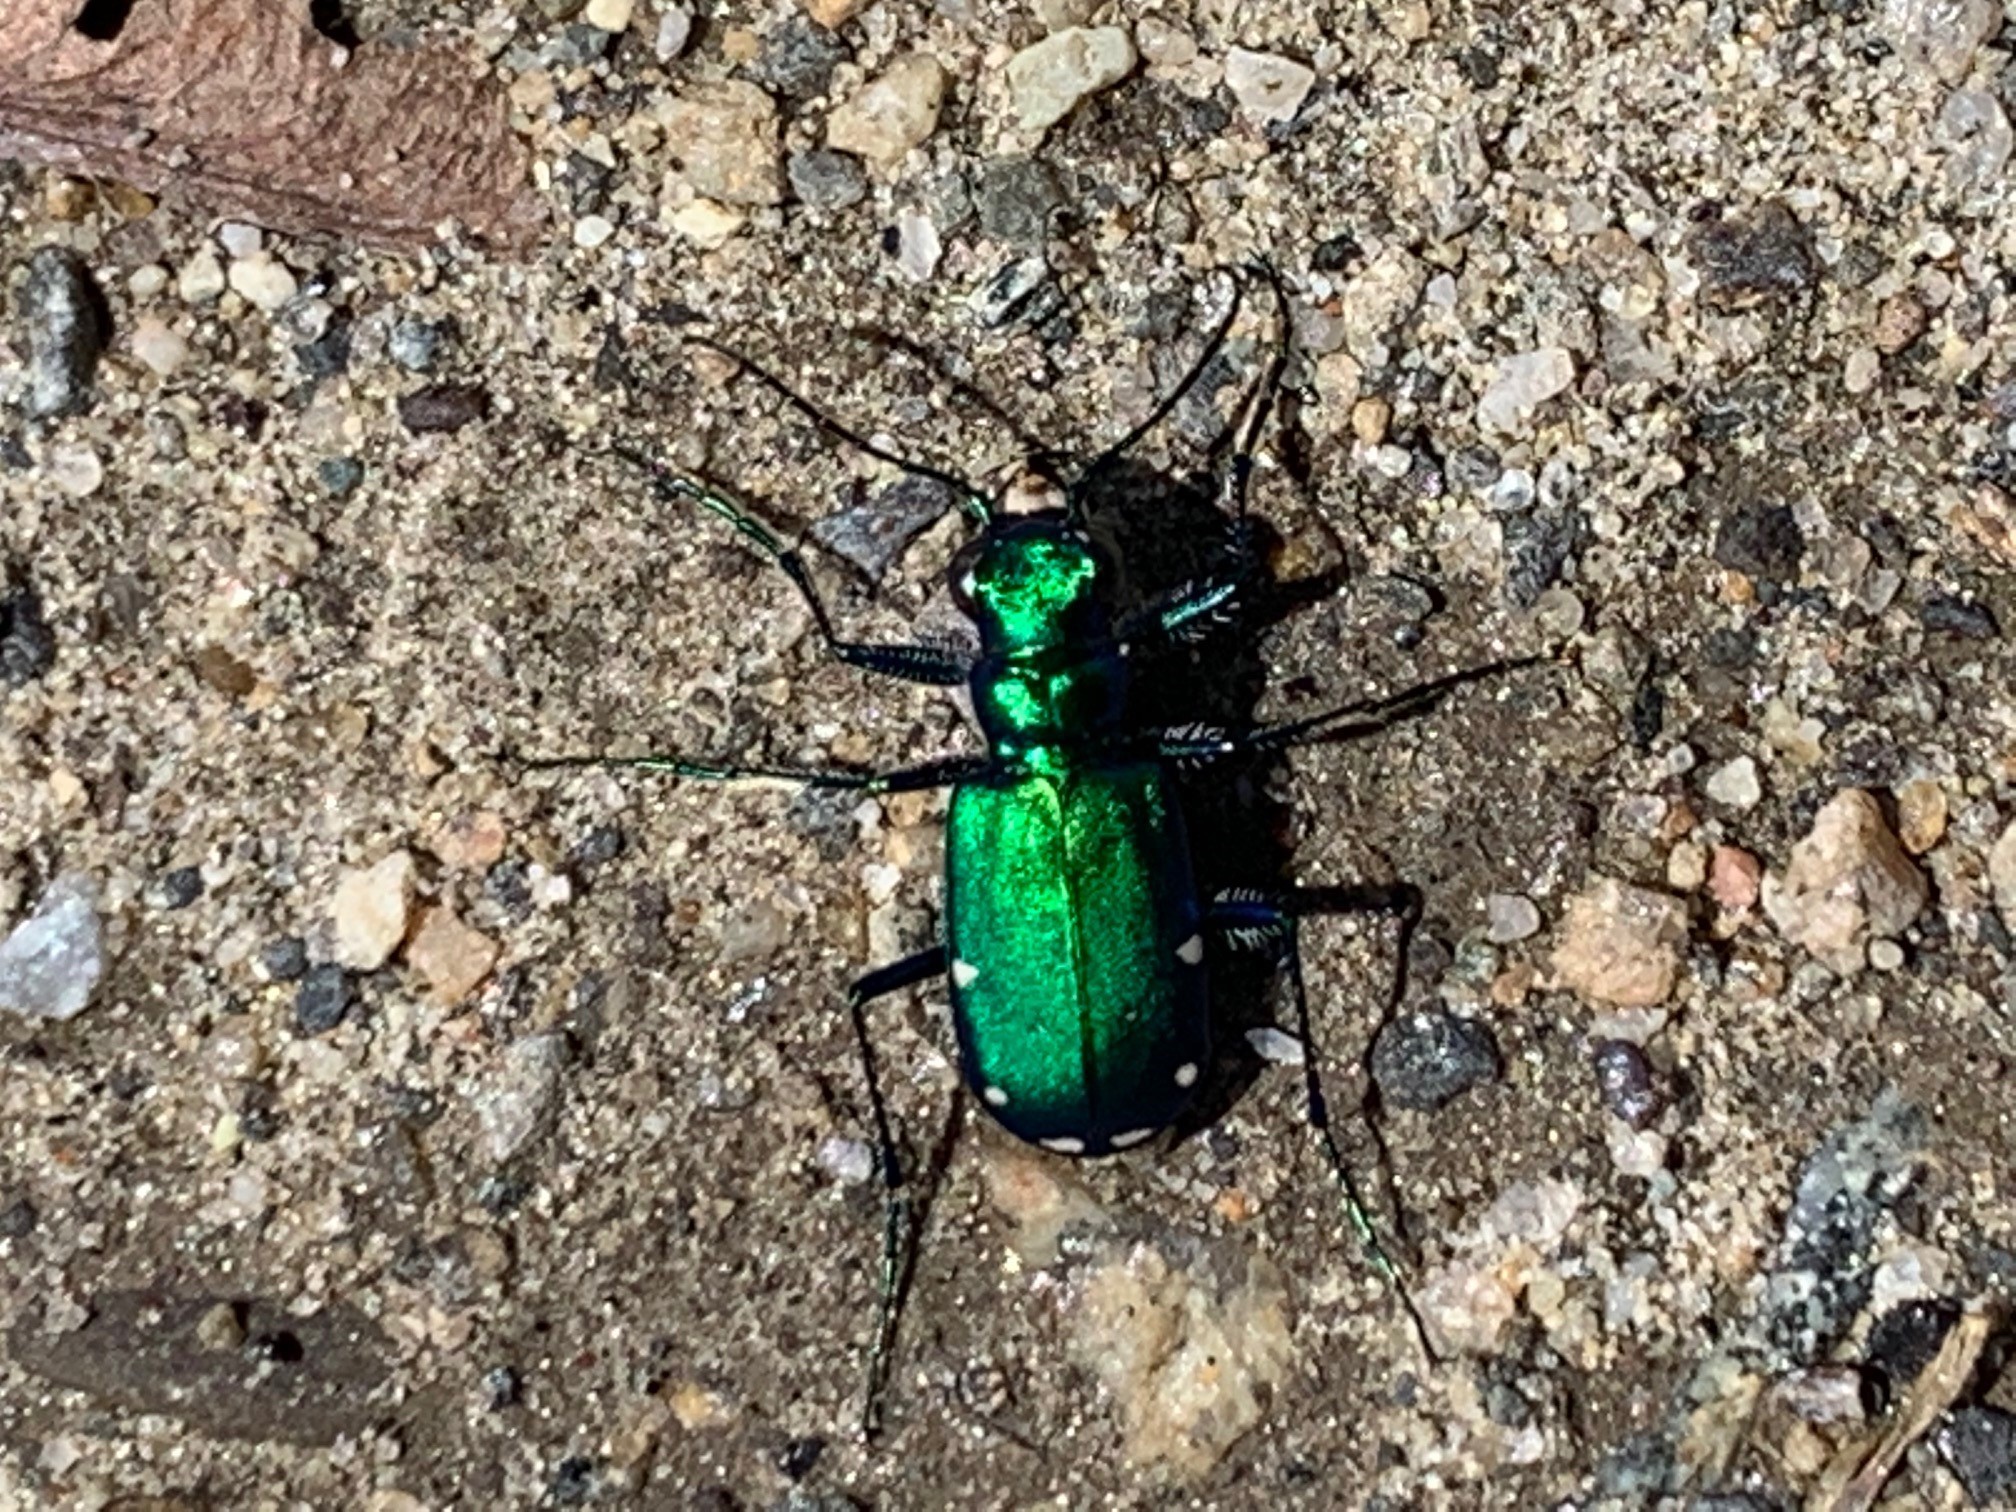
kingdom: Animalia
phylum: Arthropoda
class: Insecta
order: Coleoptera
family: Carabidae
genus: Cicindela
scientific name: Cicindela sexguttata
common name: Six-spotted tiger beetle
